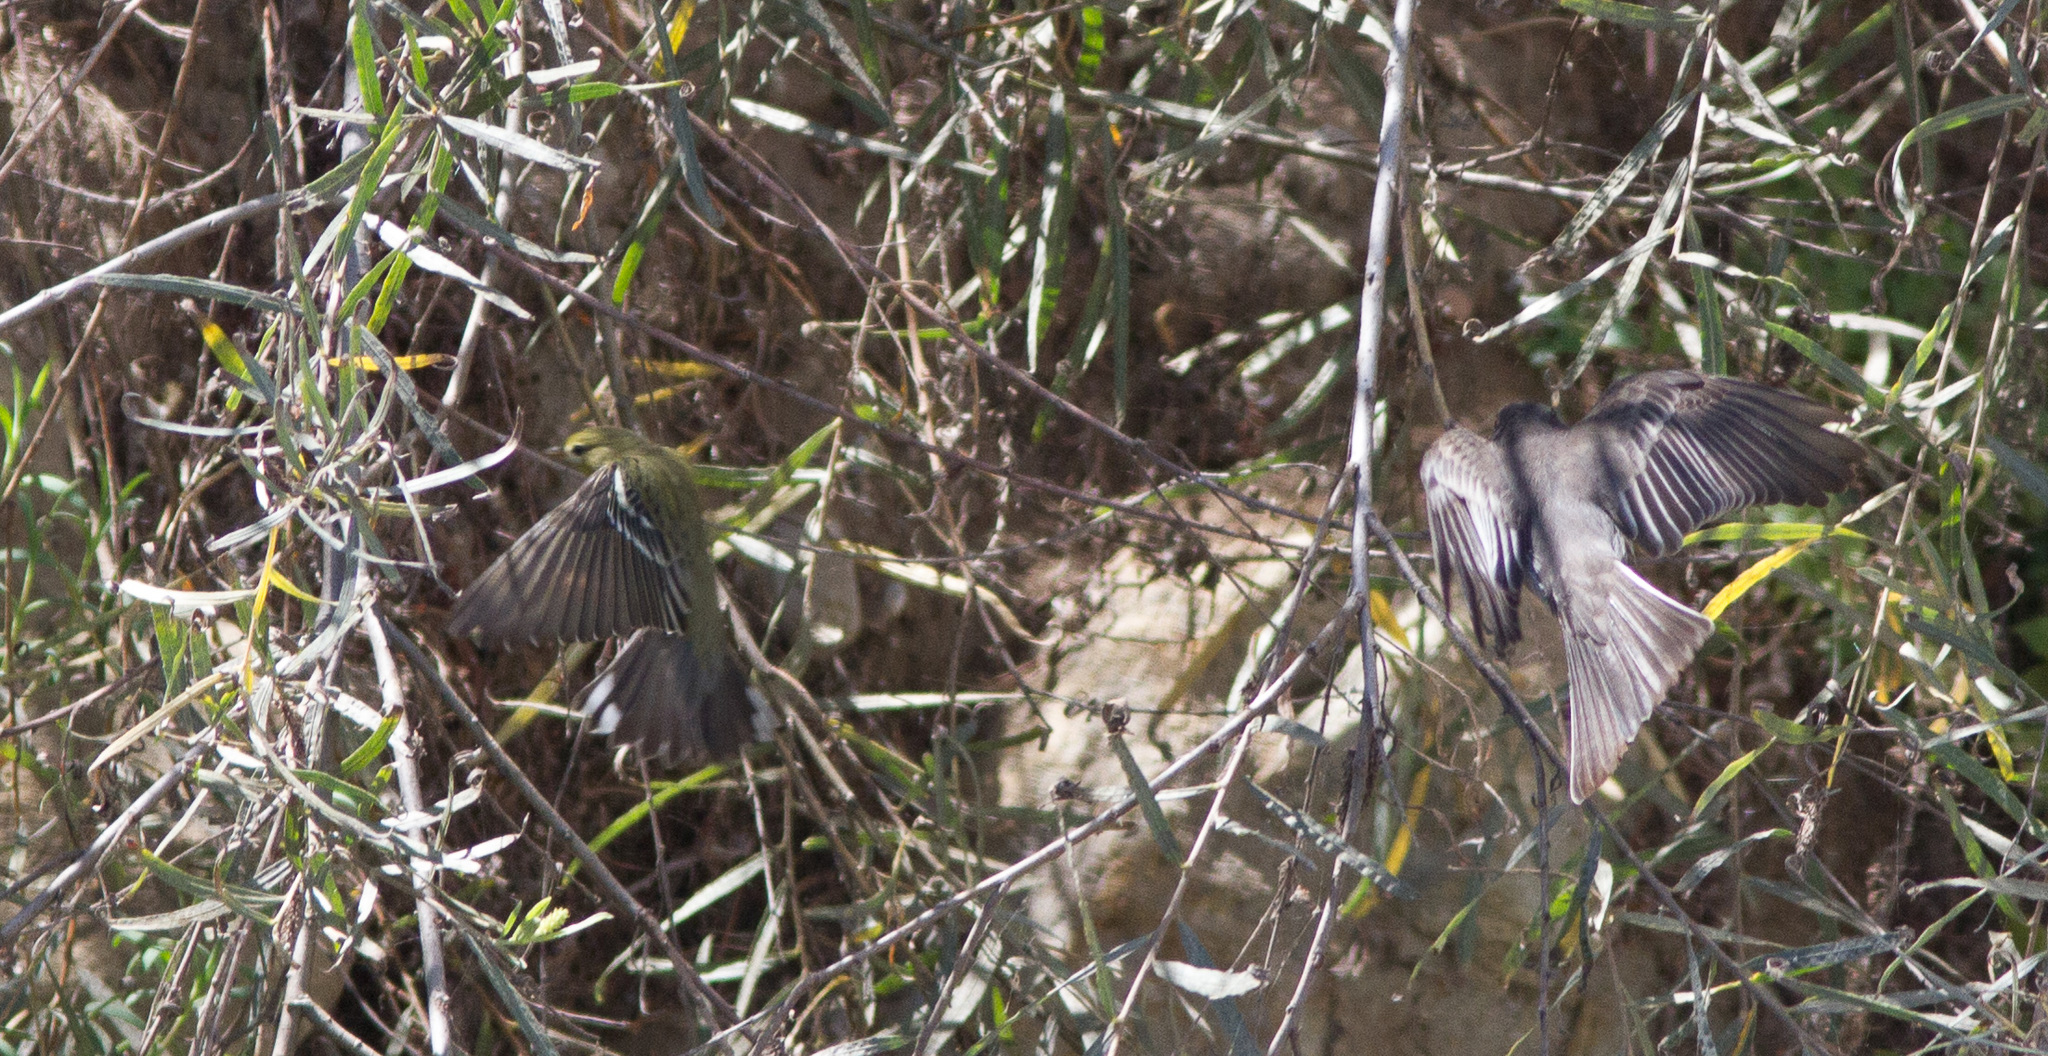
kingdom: Animalia
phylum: Chordata
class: Aves
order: Passeriformes
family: Parulidae
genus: Setophaga
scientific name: Setophaga striata
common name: Blackpoll warbler
